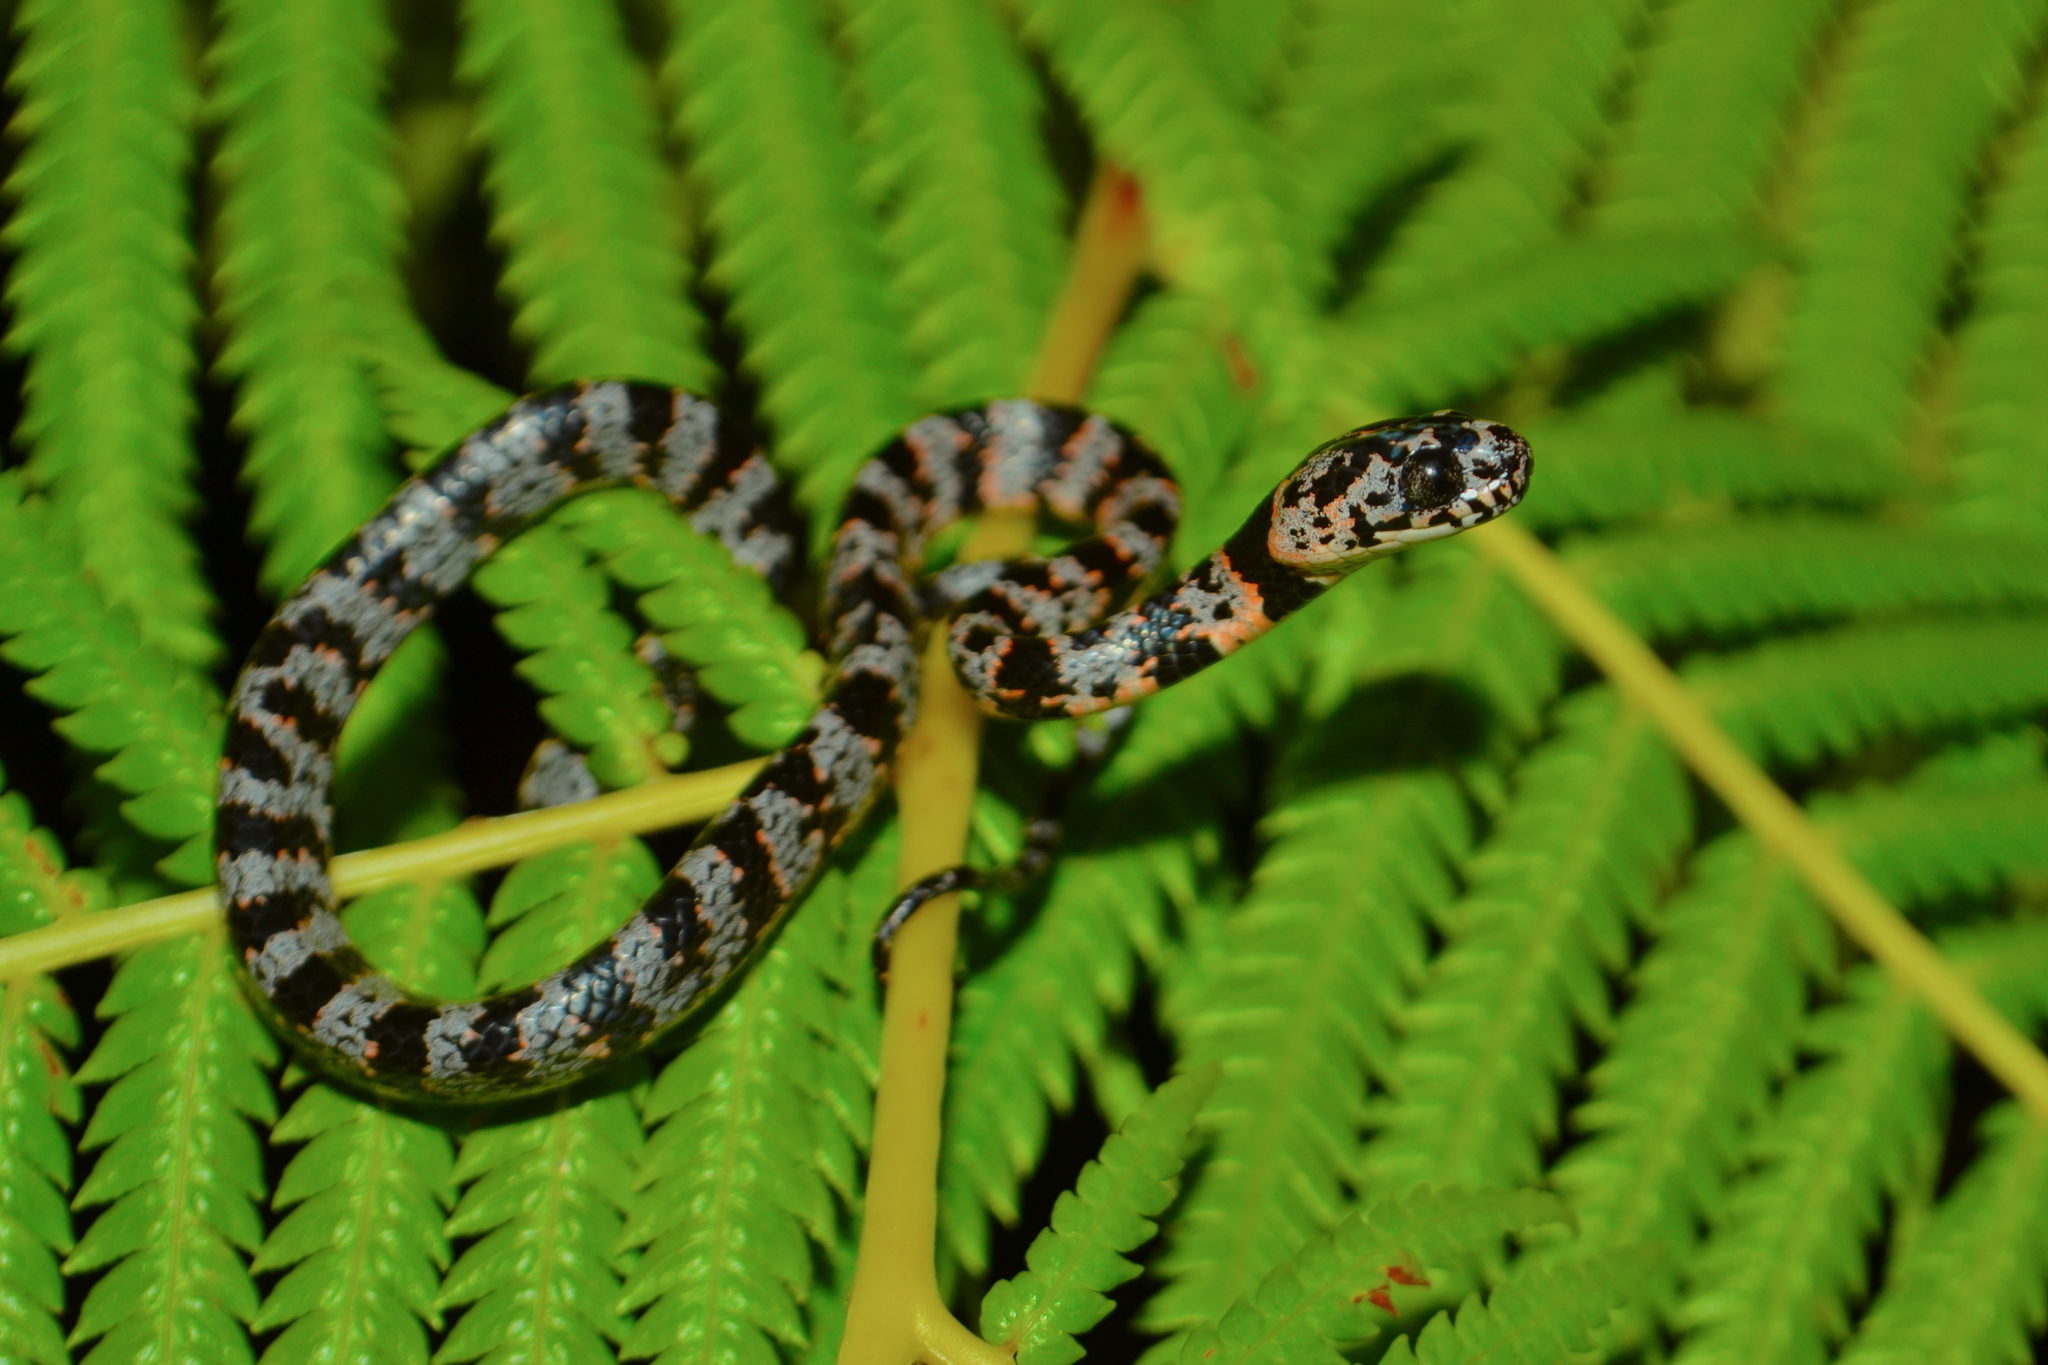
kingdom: Animalia
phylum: Chordata
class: Squamata
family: Colubridae
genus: Sibon
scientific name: Sibon nebulatus
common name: Cloudy snail-eating snake
